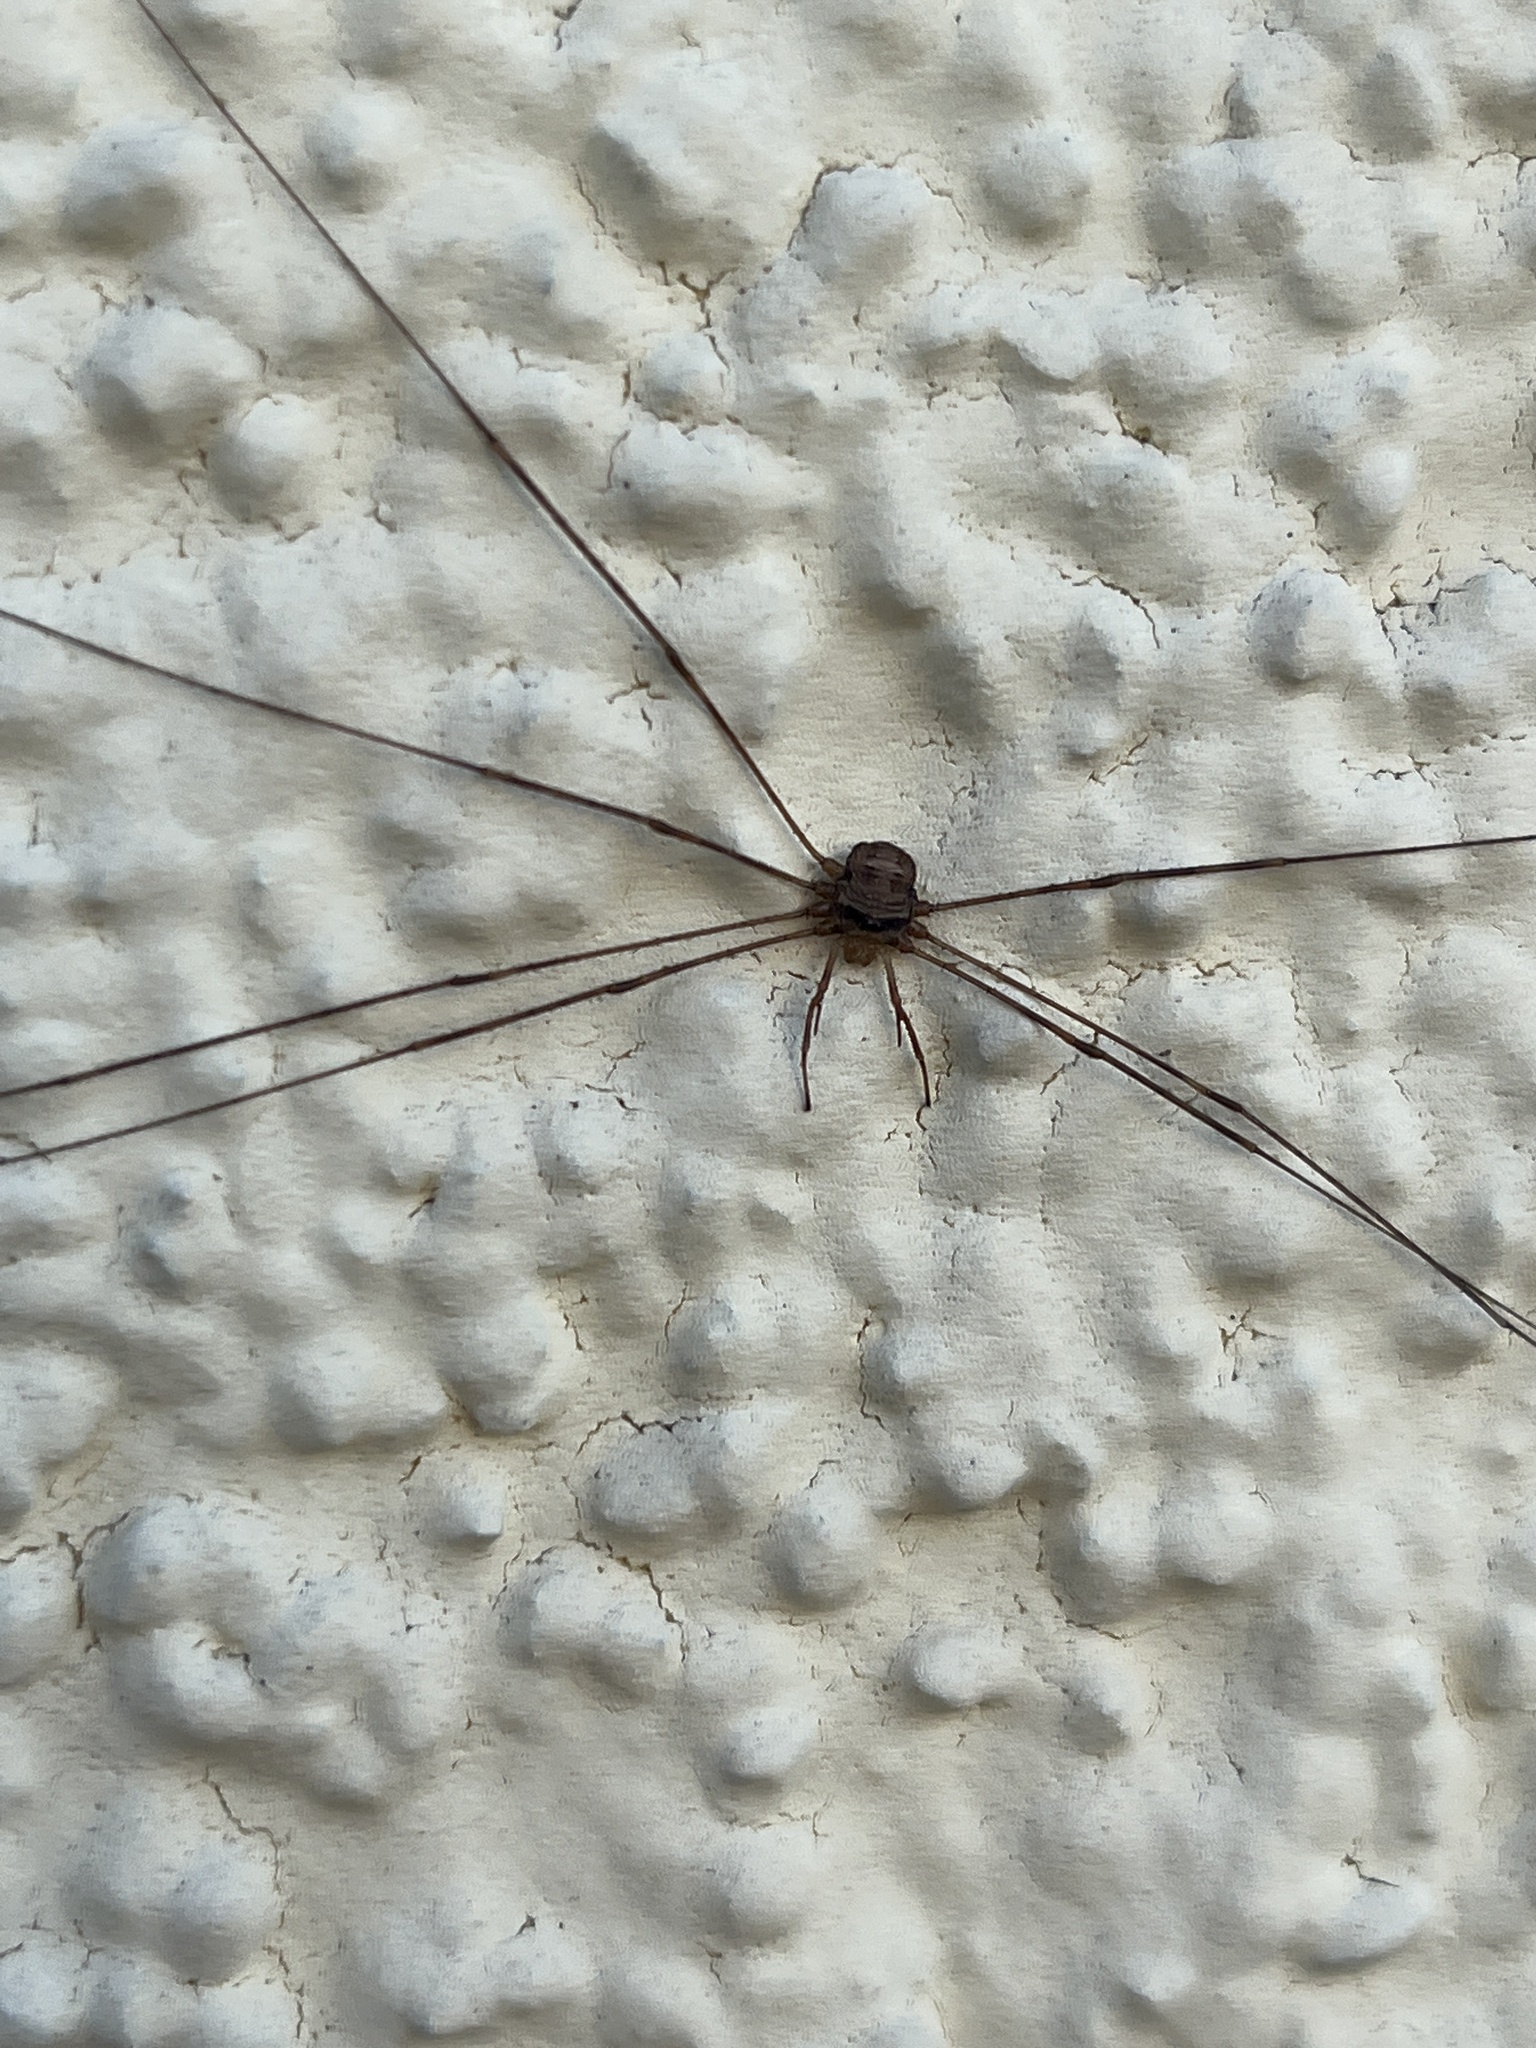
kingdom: Animalia
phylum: Arthropoda
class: Arachnida
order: Opiliones
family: Phalangiidae
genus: Dicranopalpus
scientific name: Dicranopalpus ramosus
